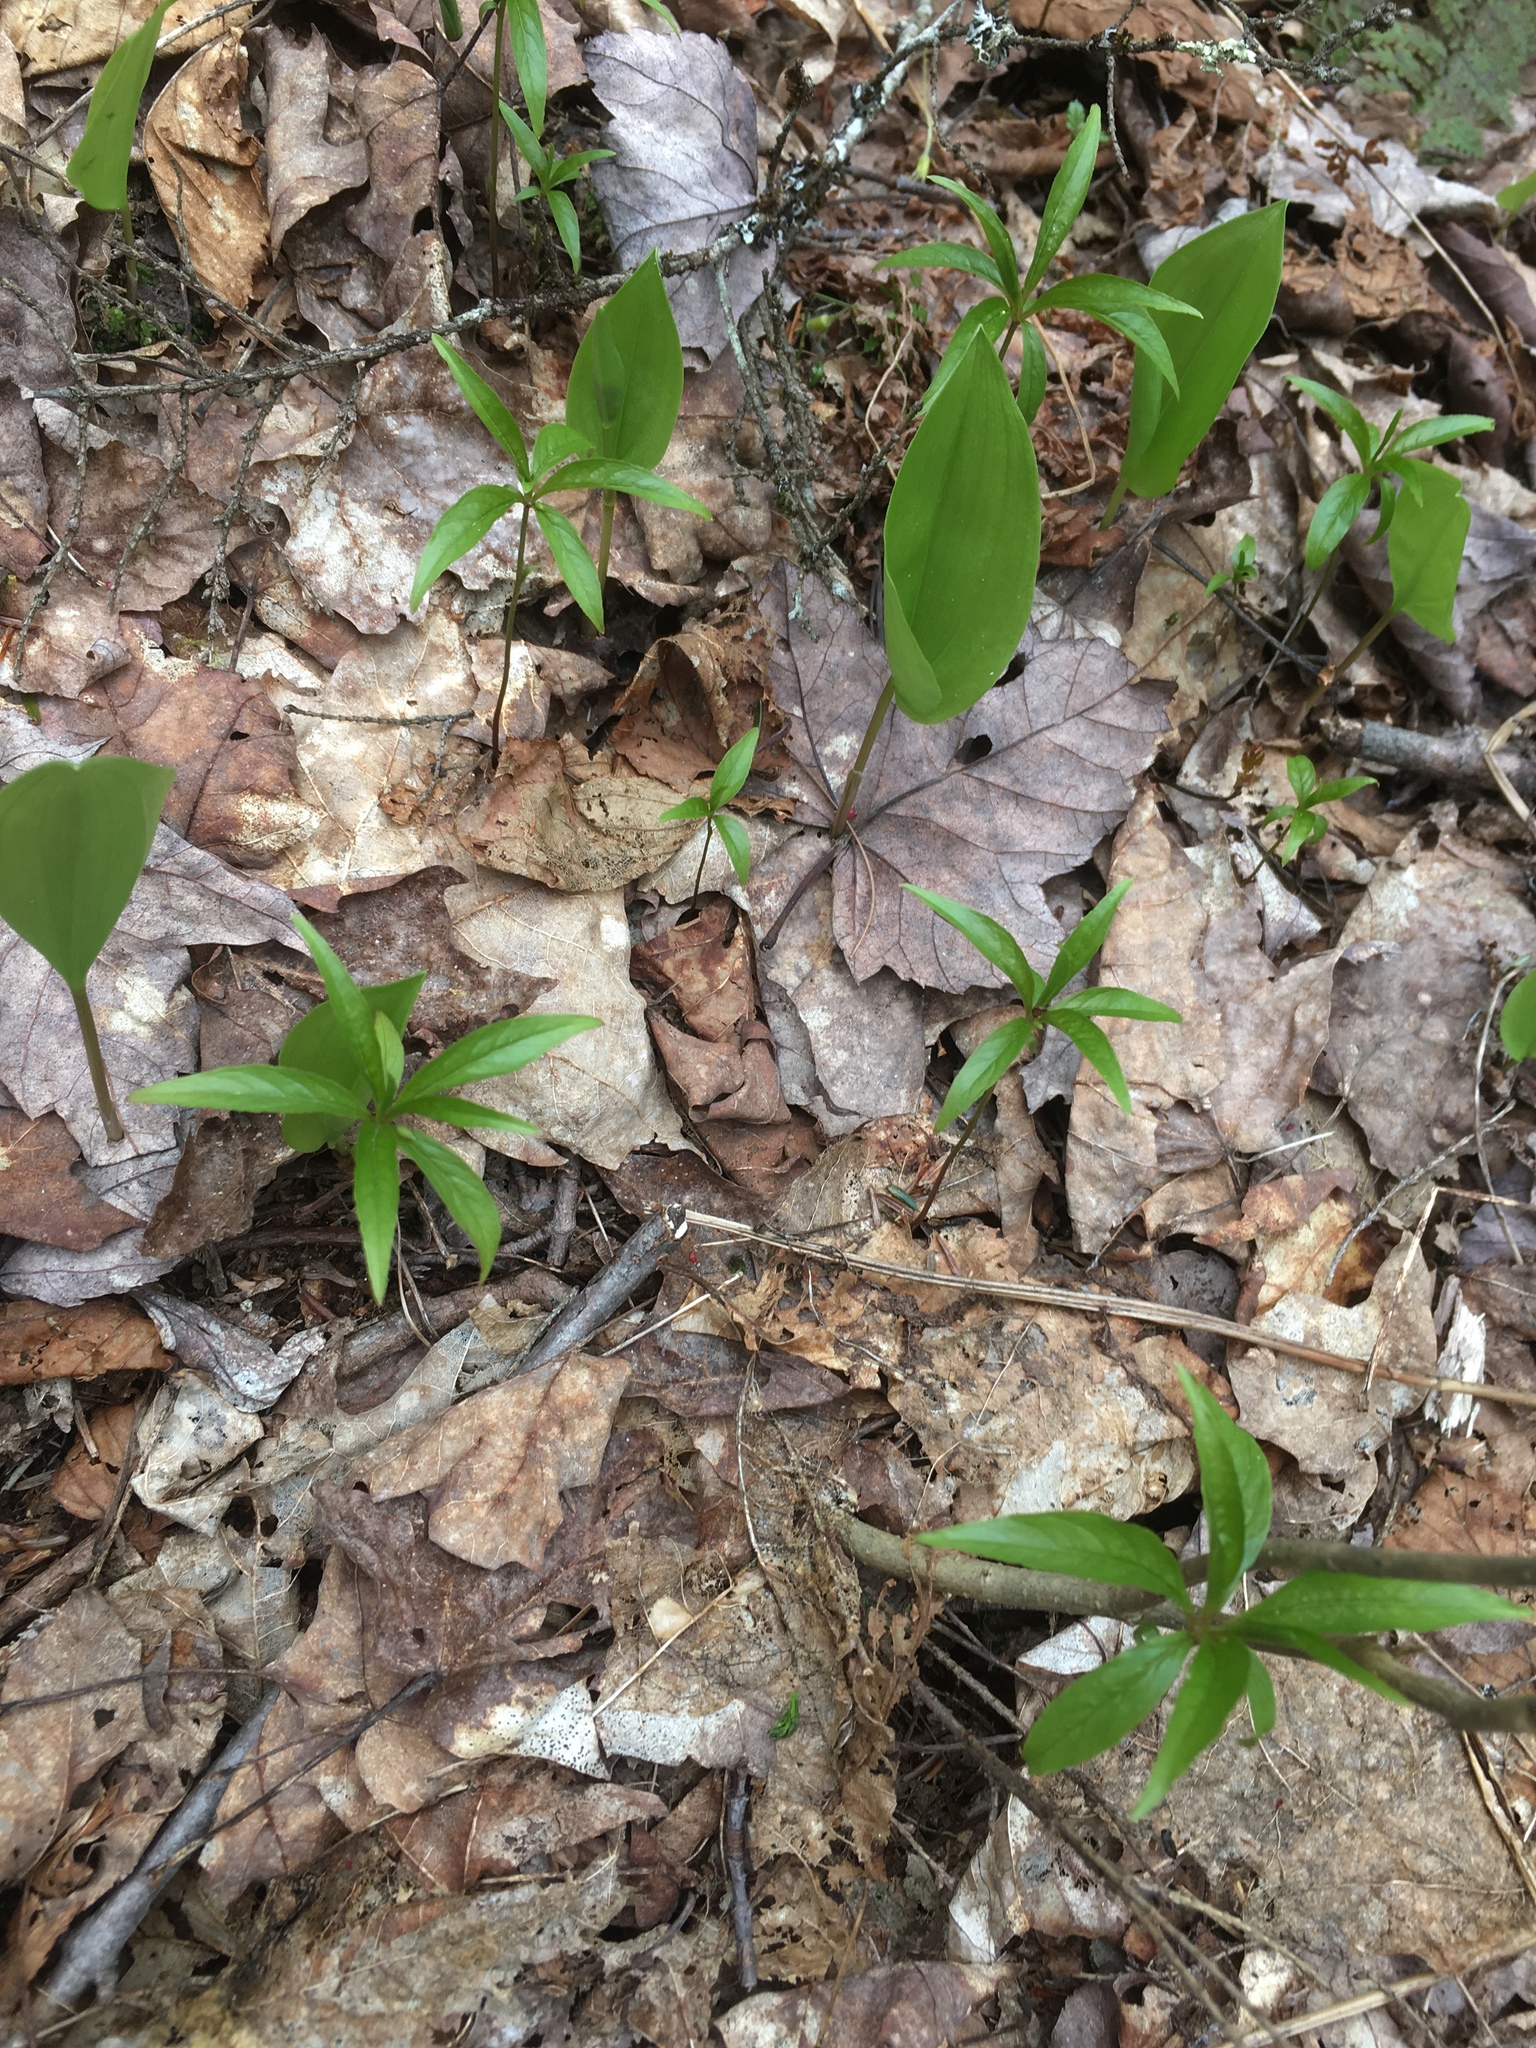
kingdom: Plantae
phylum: Tracheophyta
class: Magnoliopsida
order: Ericales
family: Primulaceae
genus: Lysimachia
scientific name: Lysimachia borealis
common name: American starflower
